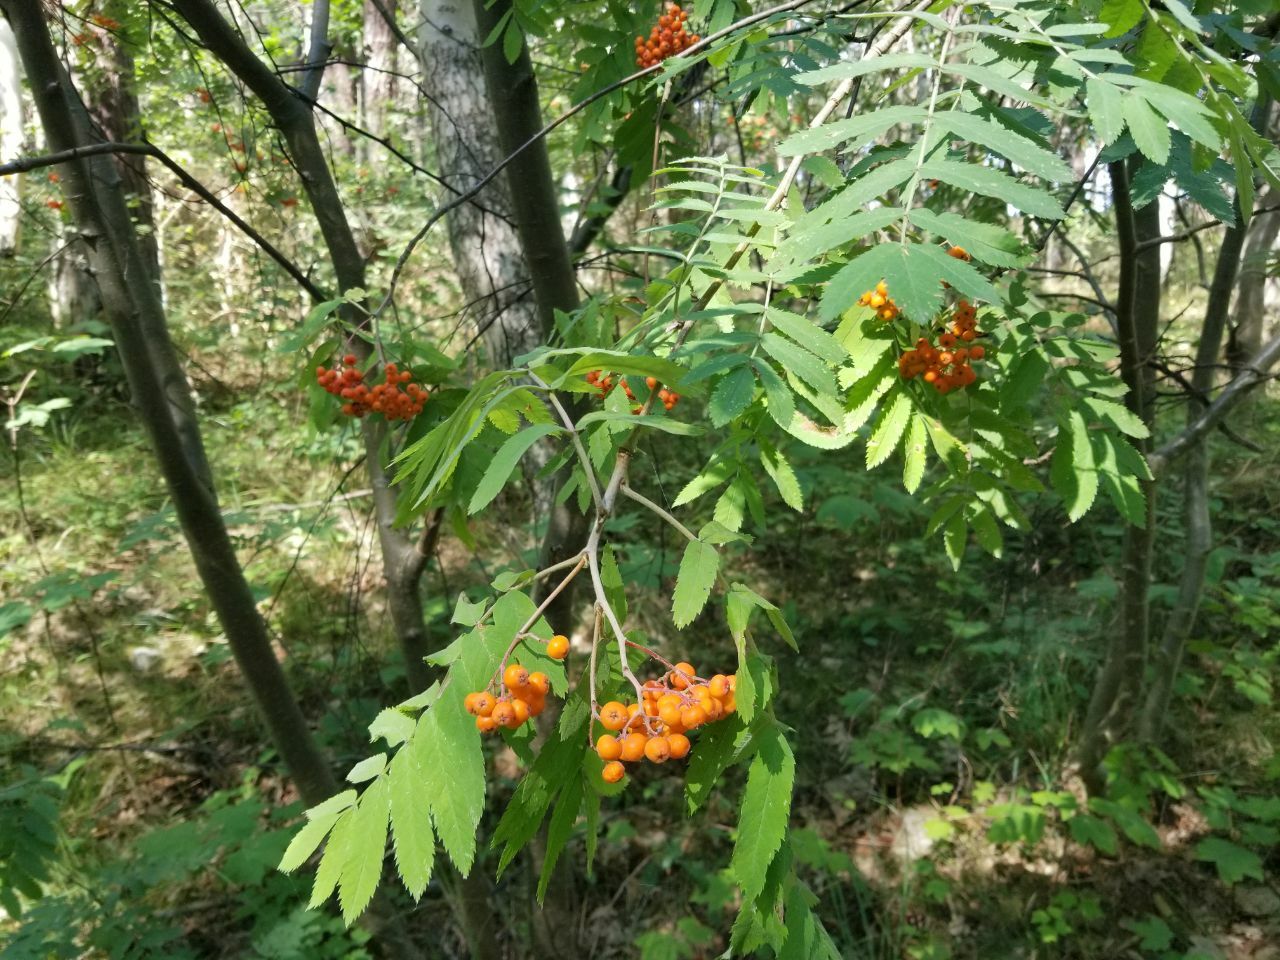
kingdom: Plantae
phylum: Tracheophyta
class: Magnoliopsida
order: Rosales
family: Rosaceae
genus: Sorbus
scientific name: Sorbus aucuparia
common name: Rowan
